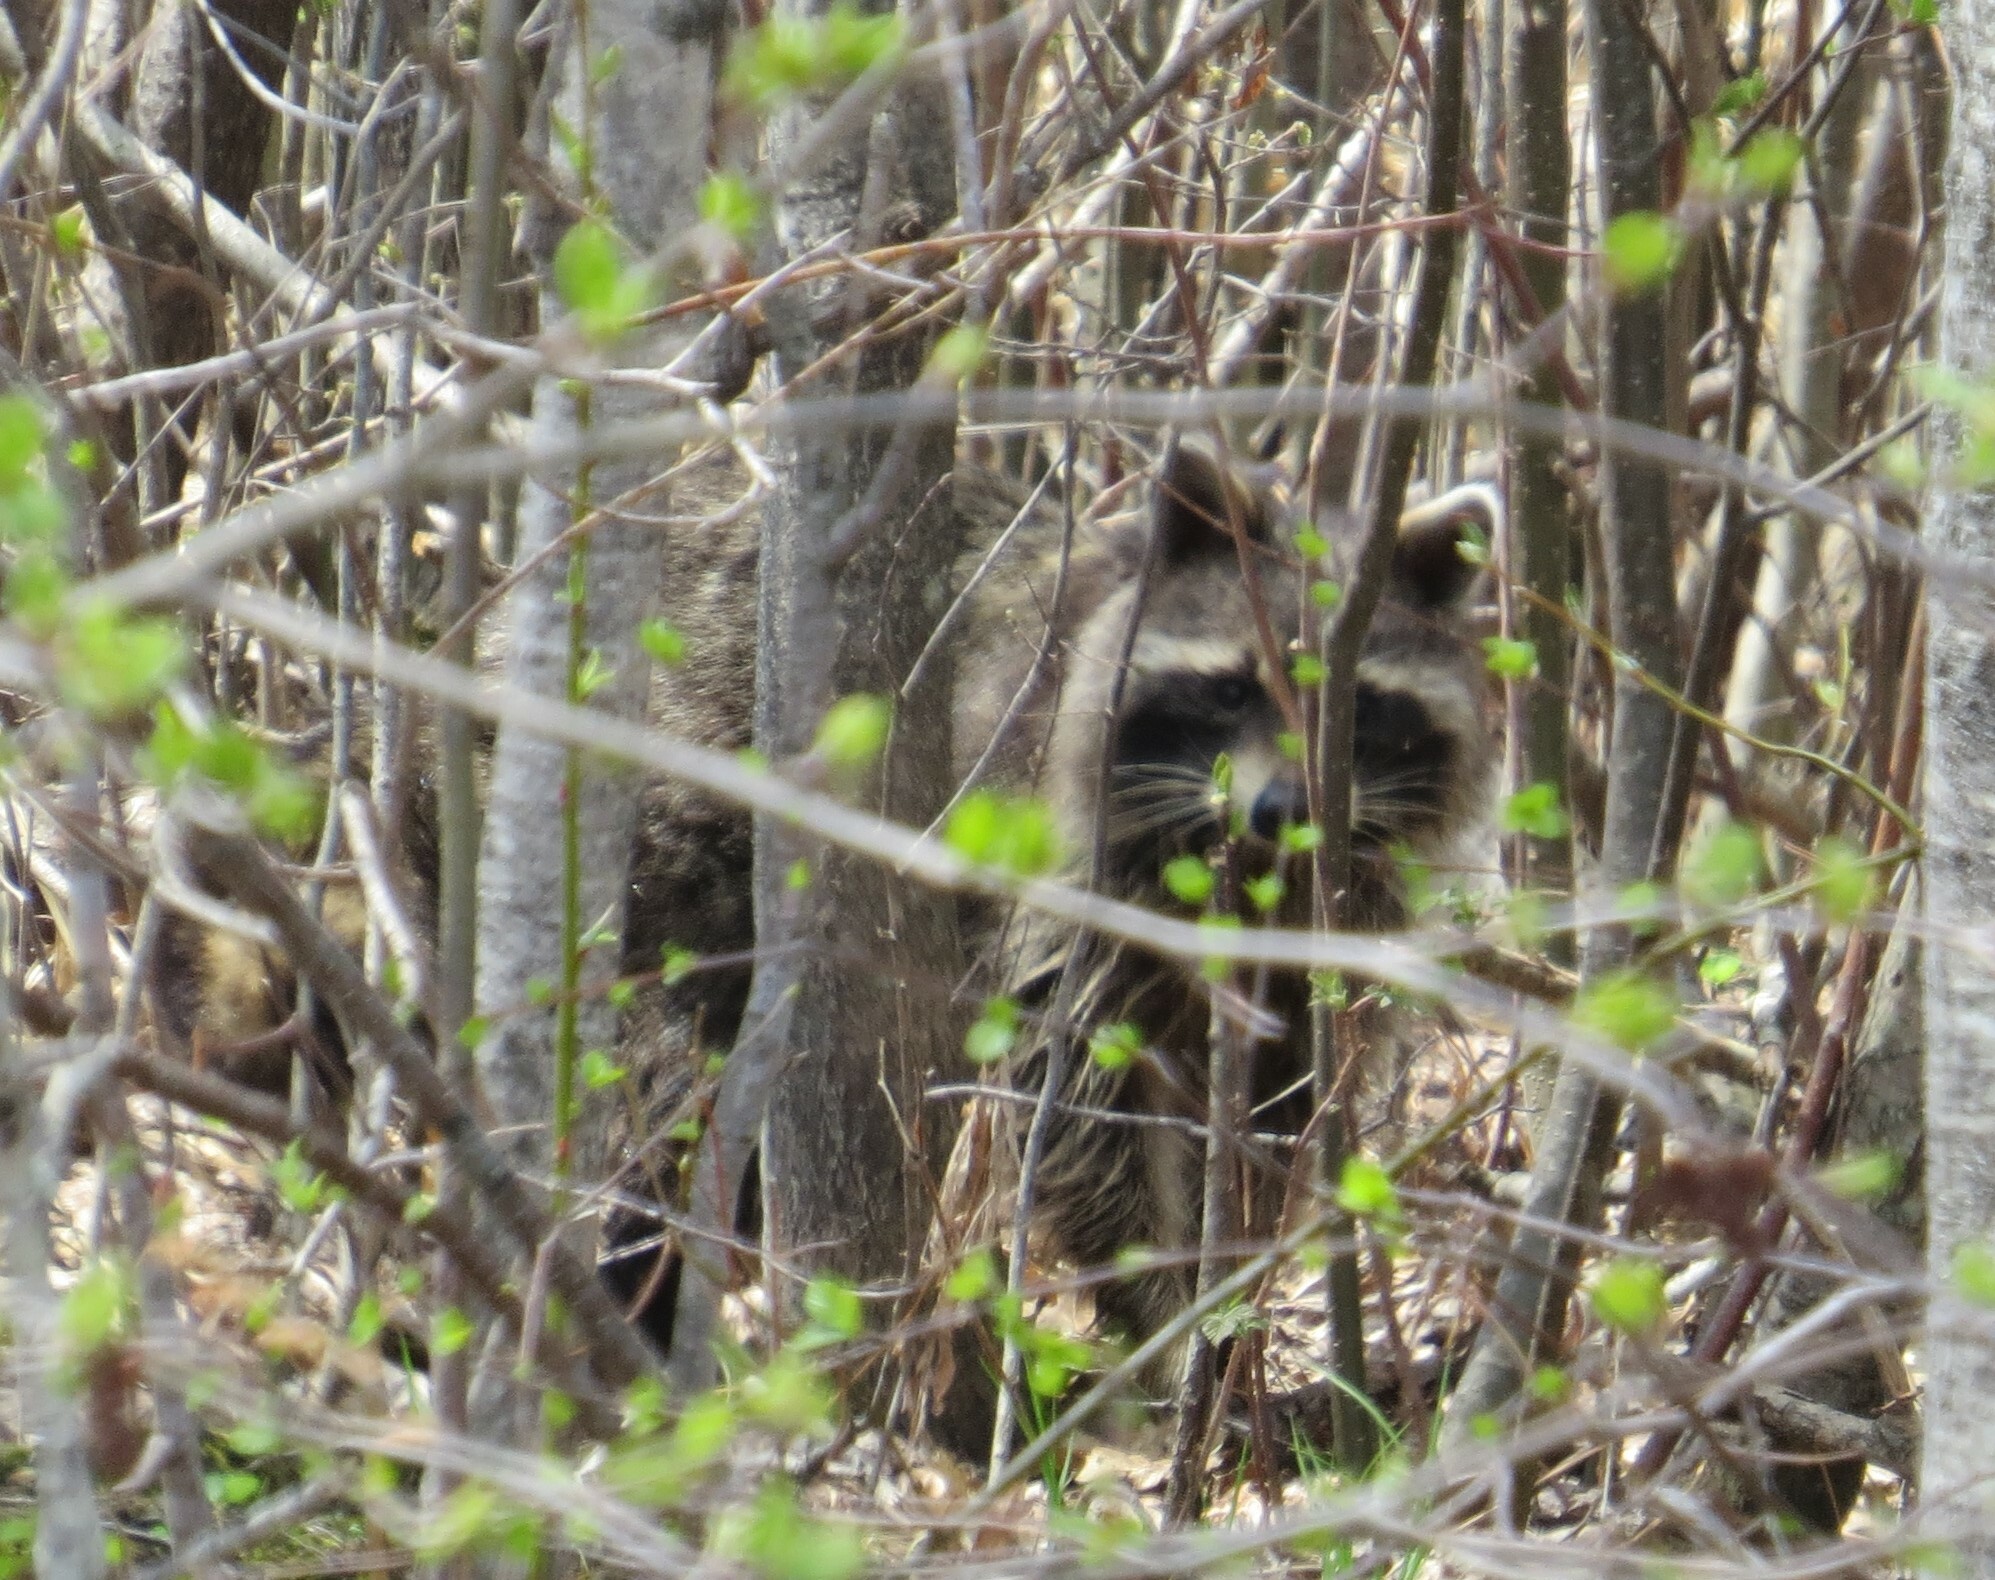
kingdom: Animalia
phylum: Chordata
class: Mammalia
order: Carnivora
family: Procyonidae
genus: Procyon
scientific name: Procyon lotor
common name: Raccoon
